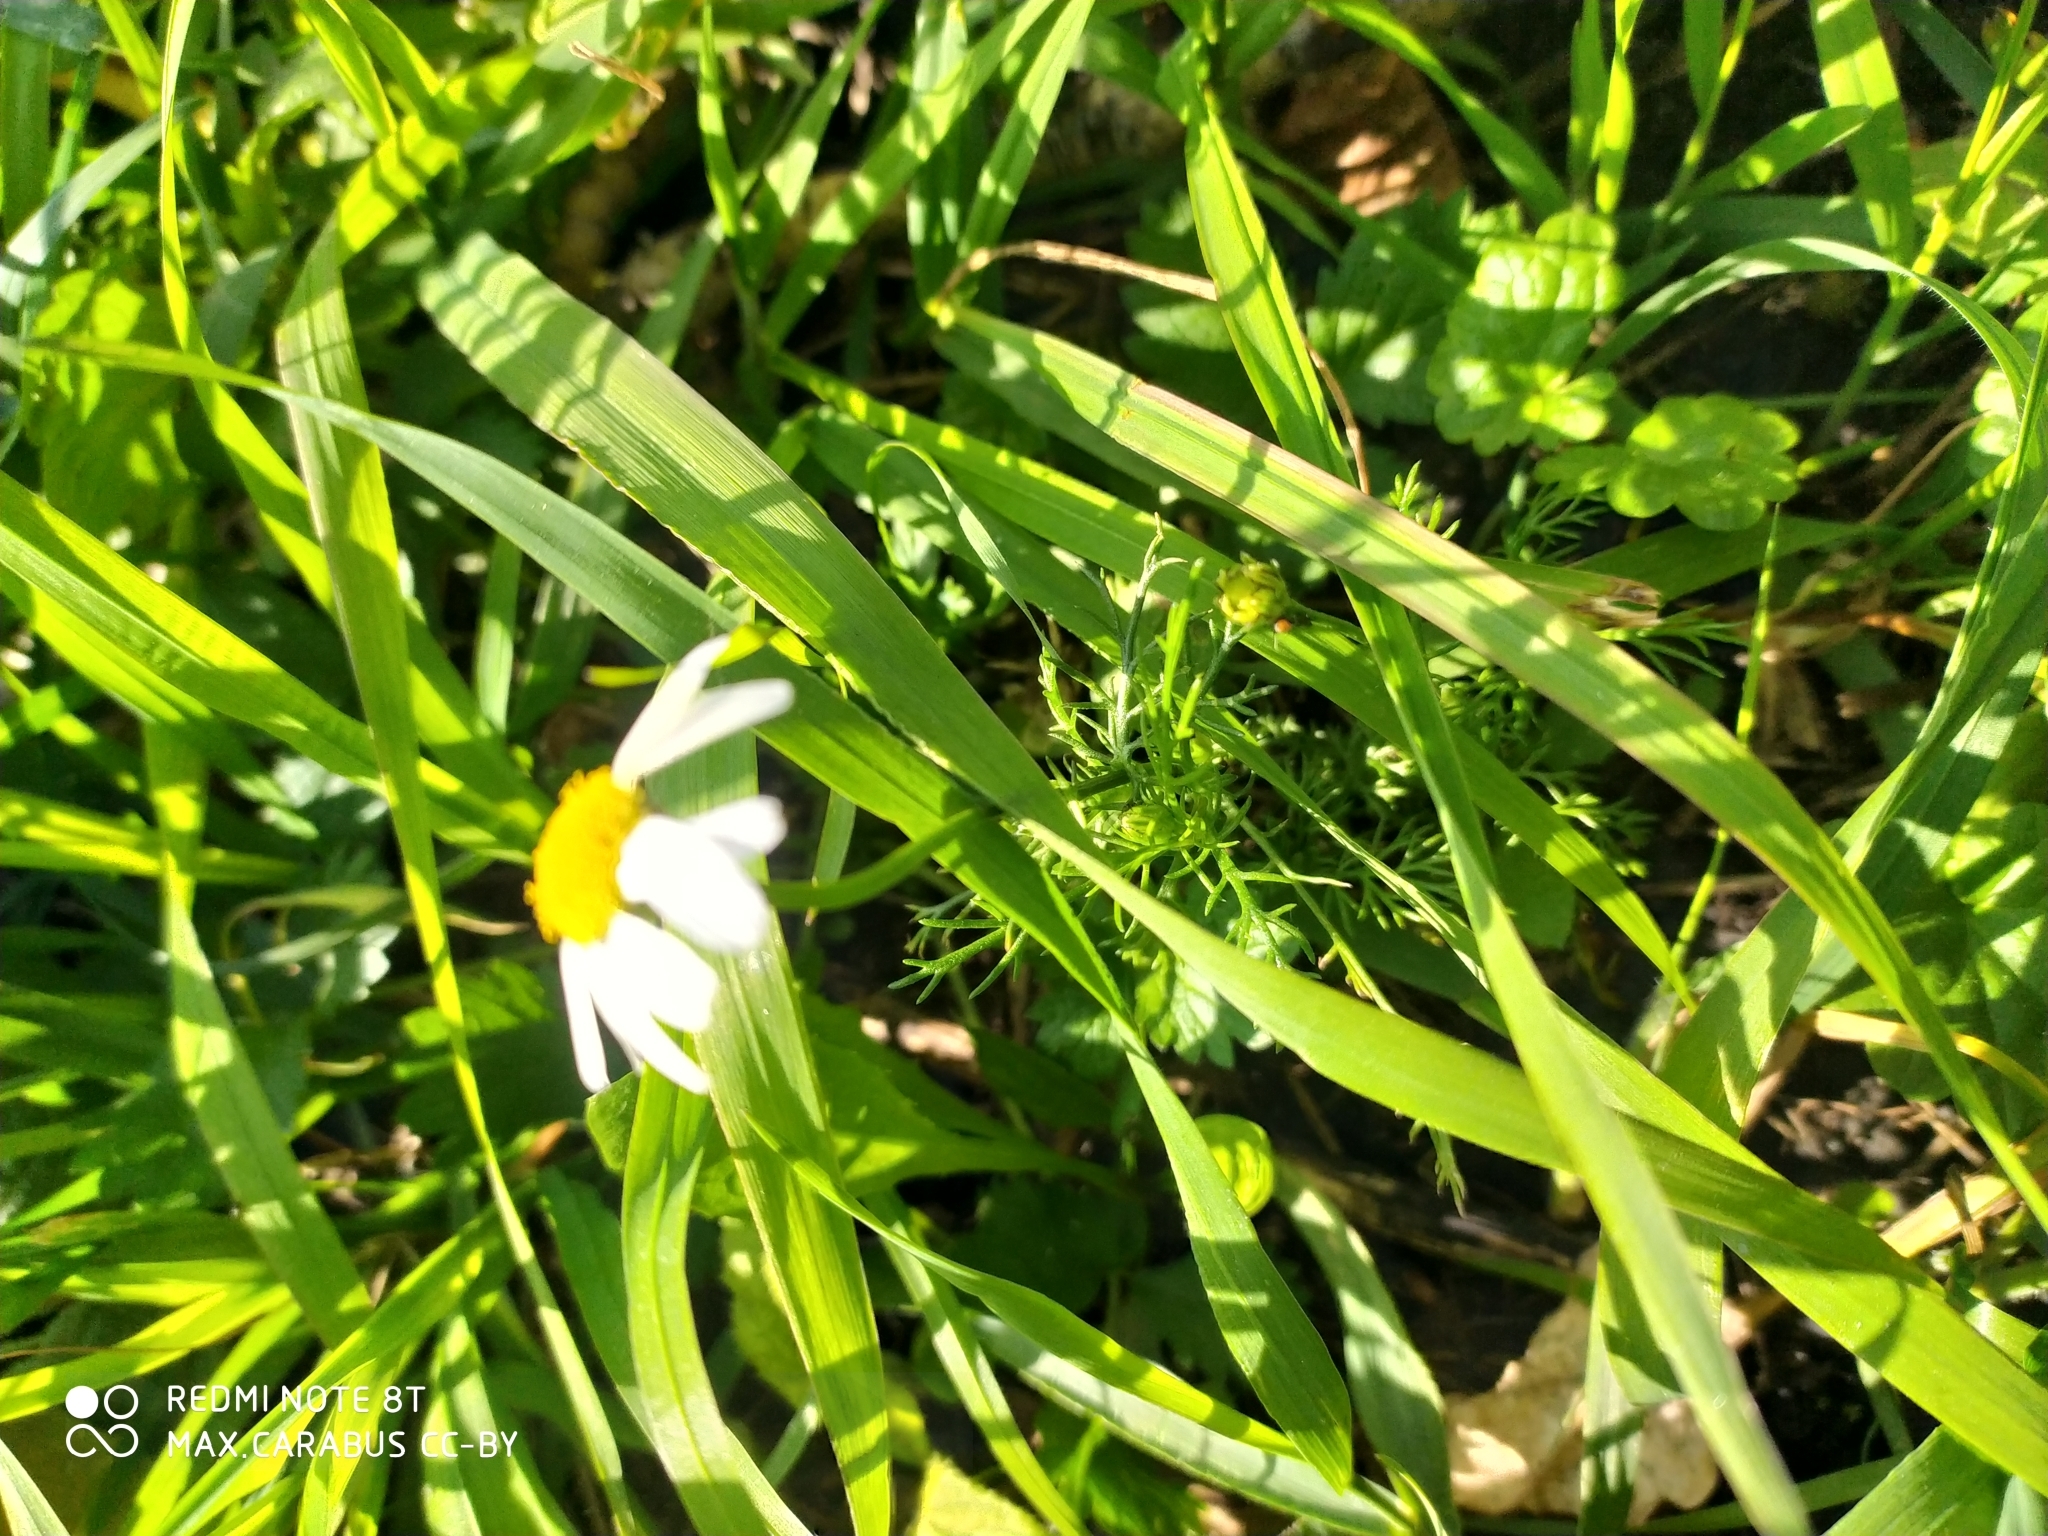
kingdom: Plantae
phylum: Tracheophyta
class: Magnoliopsida
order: Asterales
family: Asteraceae
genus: Tripleurospermum
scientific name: Tripleurospermum inodorum
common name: Scentless mayweed
